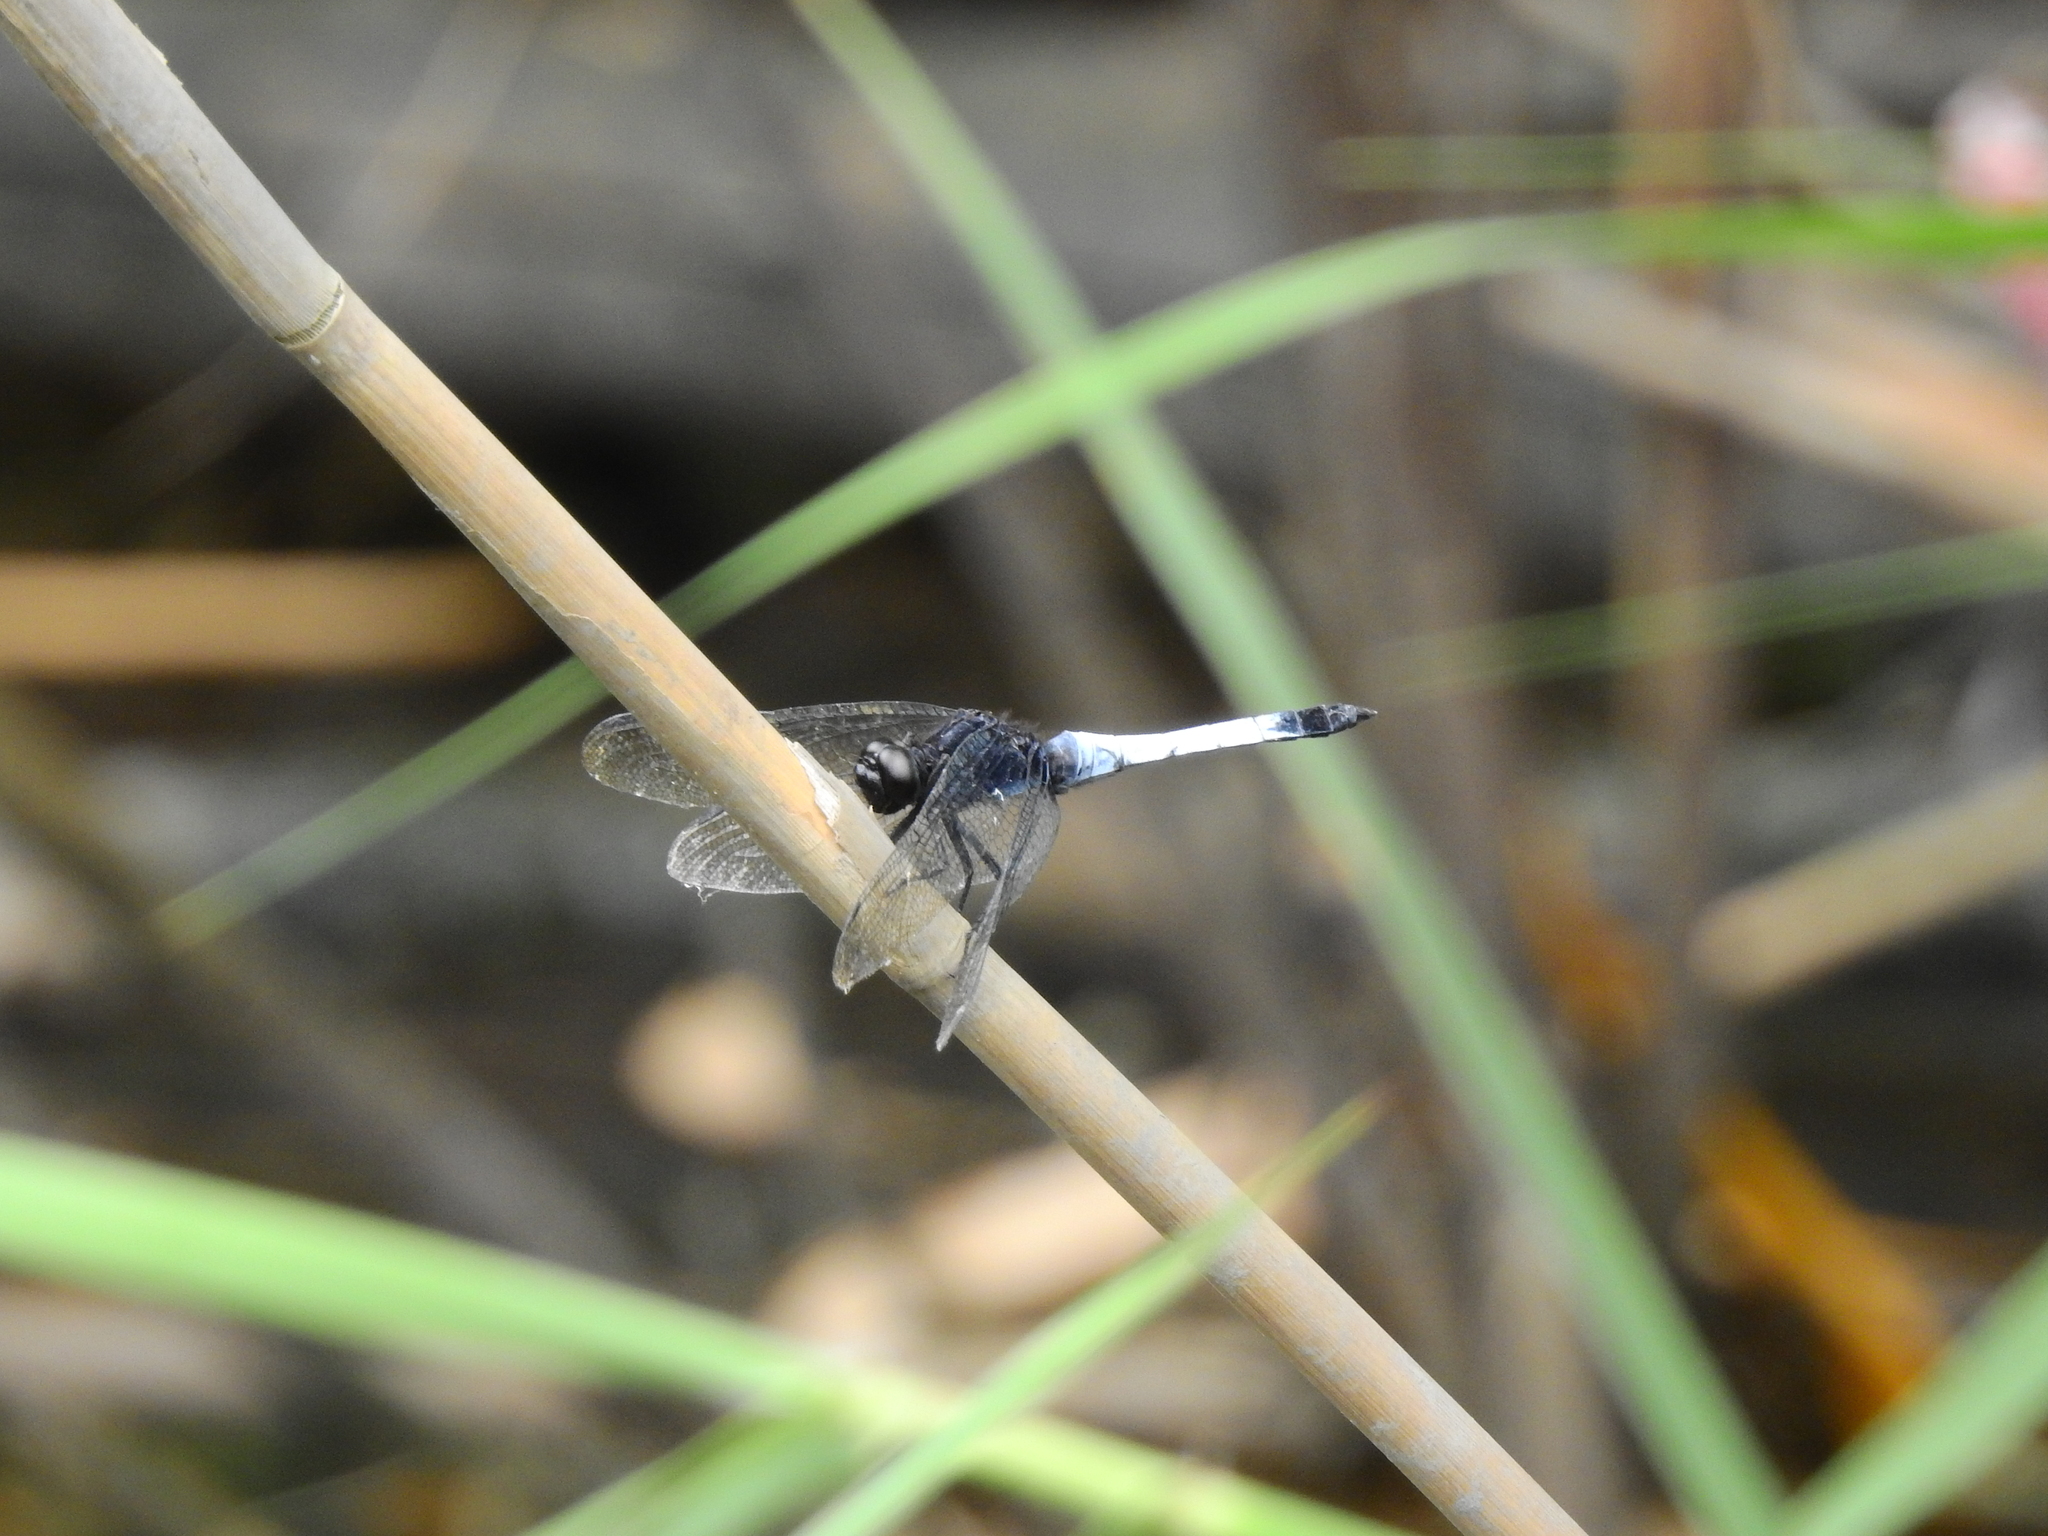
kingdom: Animalia
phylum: Arthropoda
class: Insecta
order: Odonata
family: Libellulidae
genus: Orthetrum
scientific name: Orthetrum triangulare
